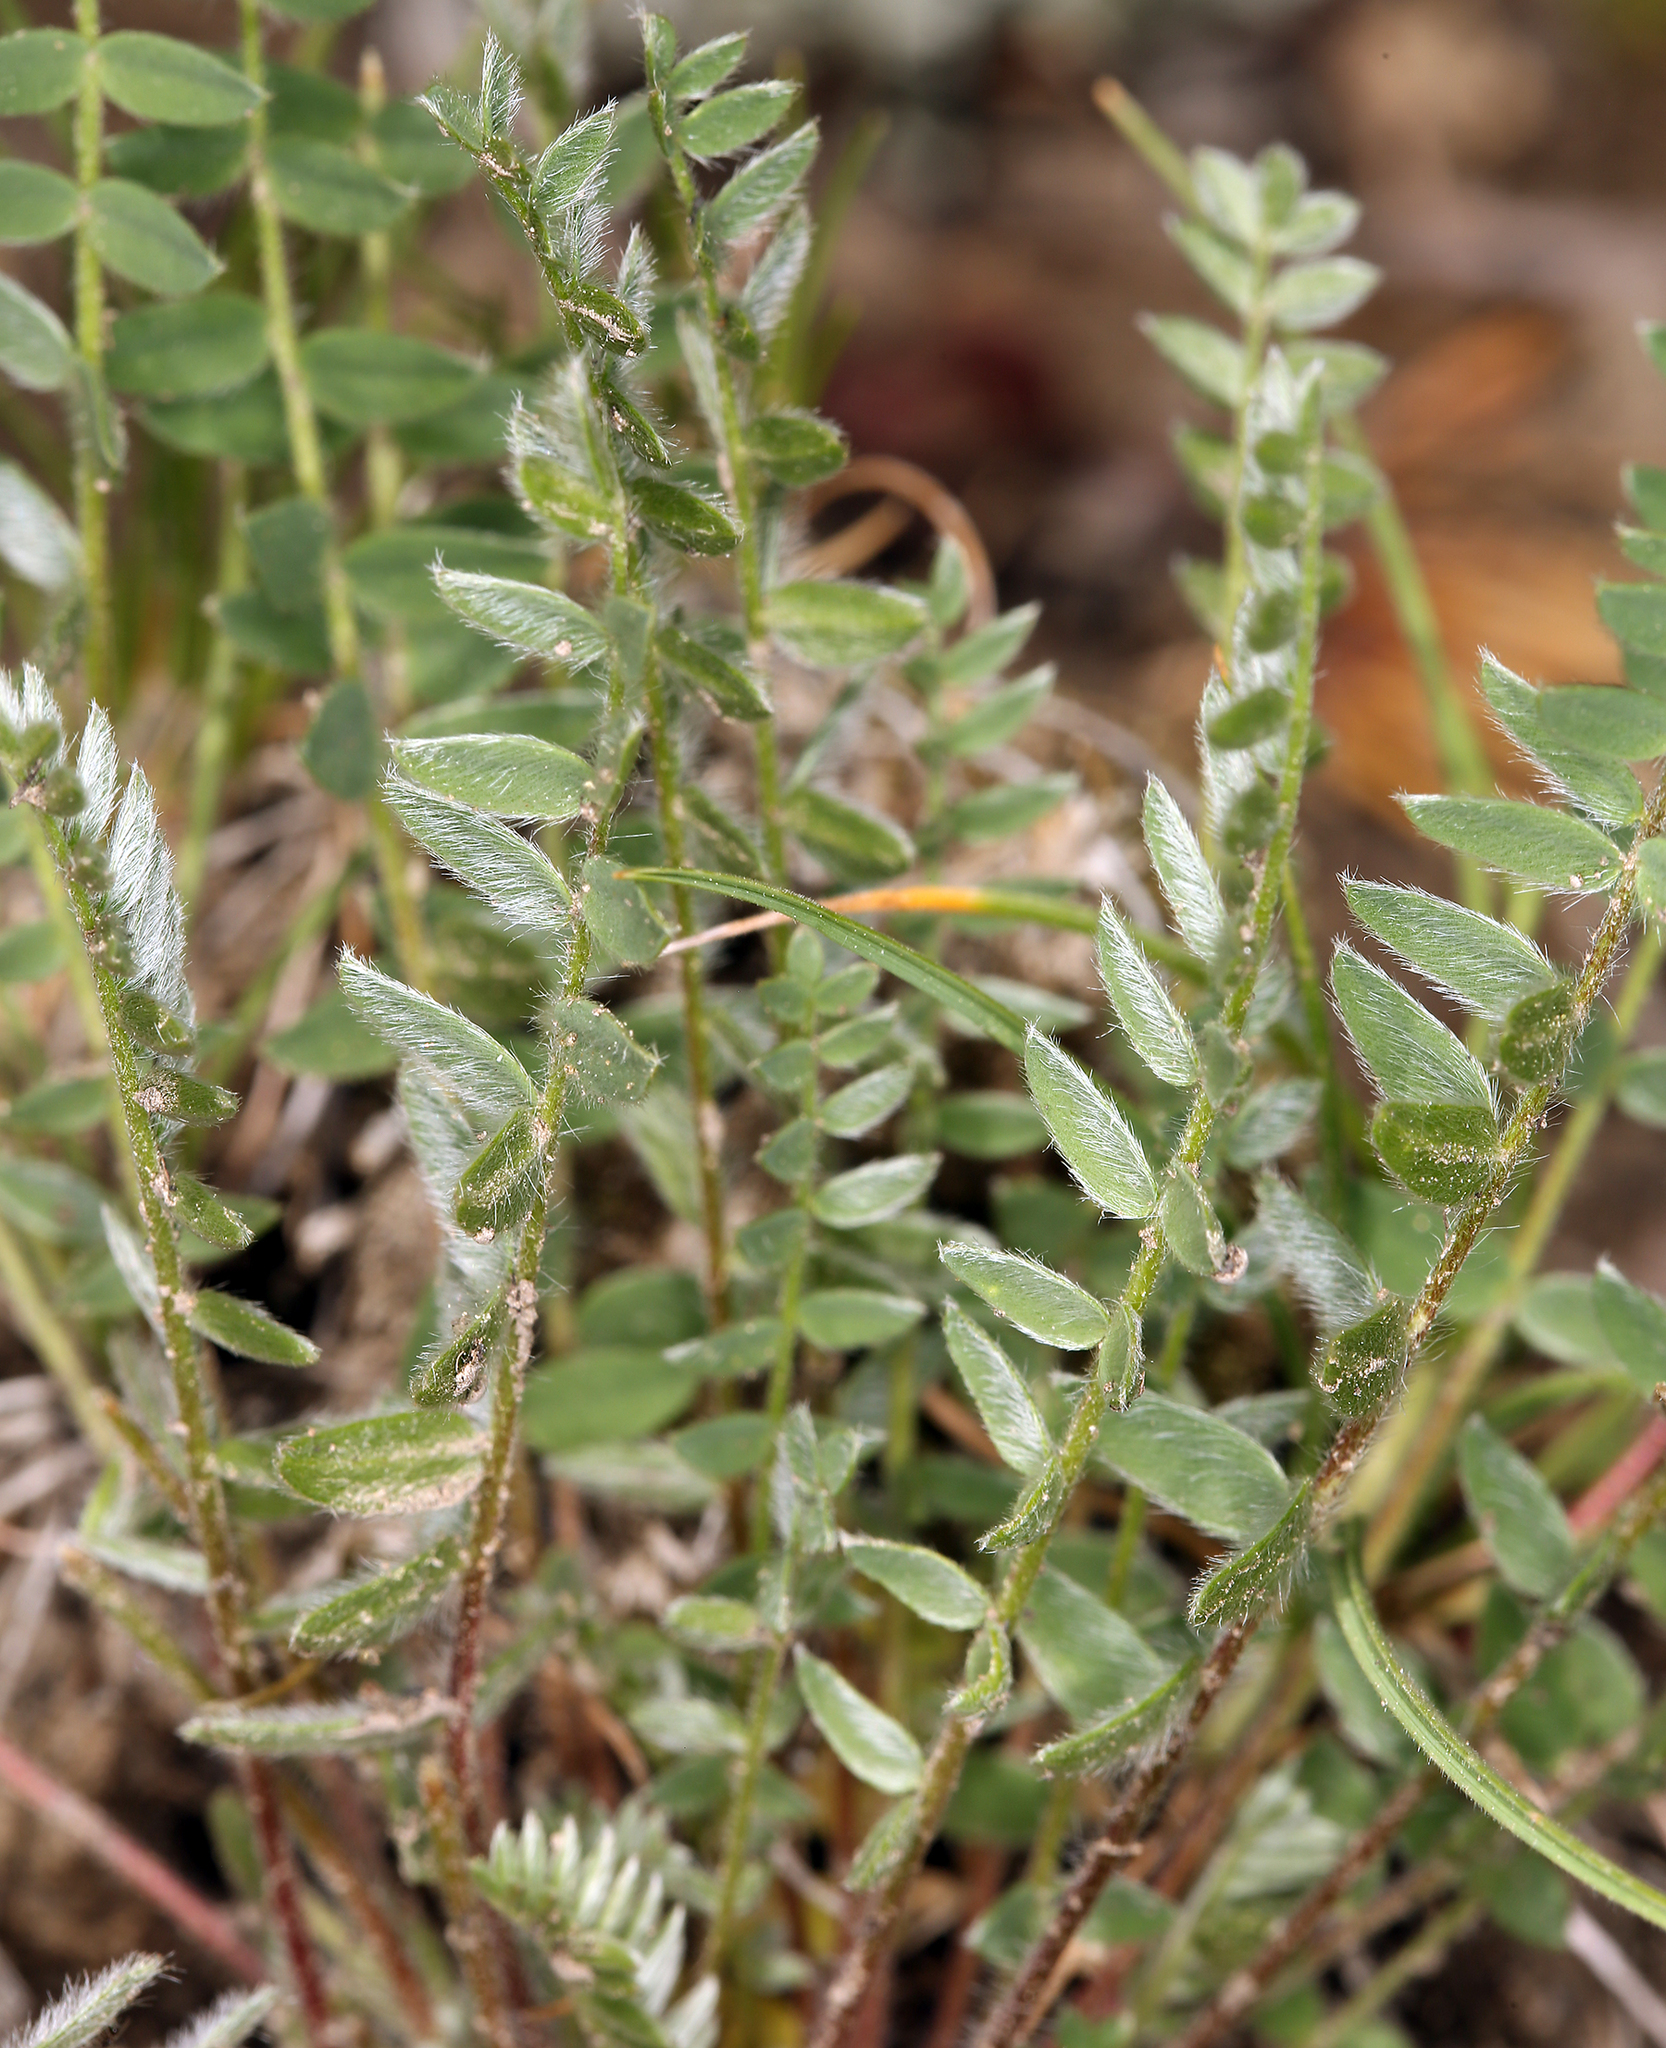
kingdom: Plantae
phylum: Tracheophyta
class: Magnoliopsida
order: Fabales
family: Fabaceae
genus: Oxytropis
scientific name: Oxytropis deflexa
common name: Stemmed oxytrope
